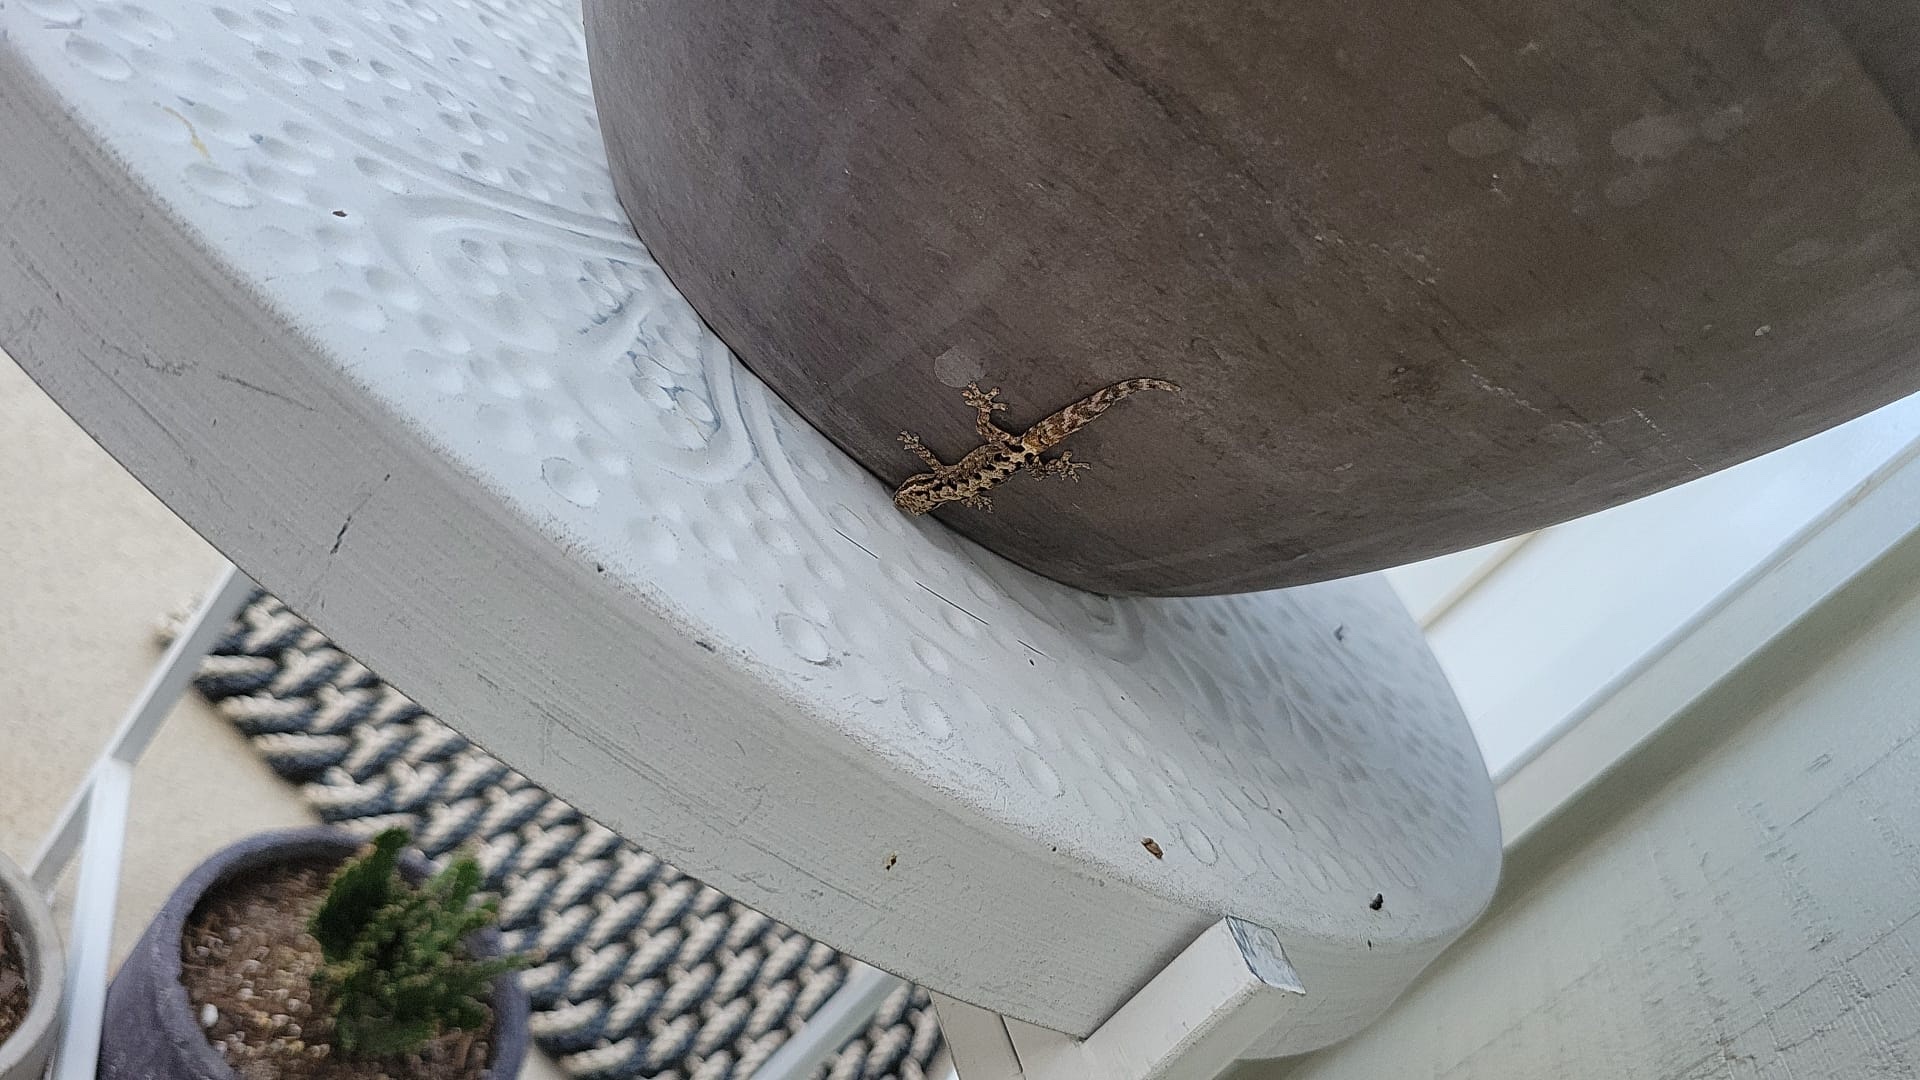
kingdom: Animalia
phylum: Chordata
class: Squamata
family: Gekkonidae
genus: Lepidodactylus
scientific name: Lepidodactylus lugubris
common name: Mourning gecko
